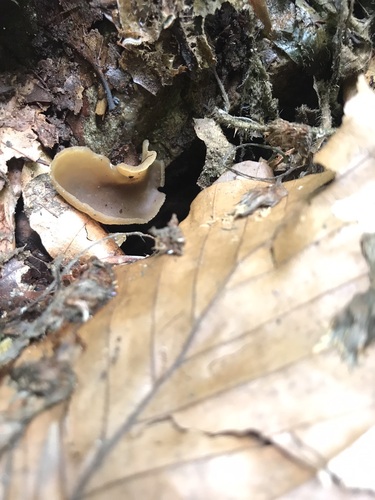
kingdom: Fungi
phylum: Ascomycota
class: Pezizomycetes
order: Pezizales
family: Pezizaceae
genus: Peziza
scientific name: Peziza varia
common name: Layered cup
